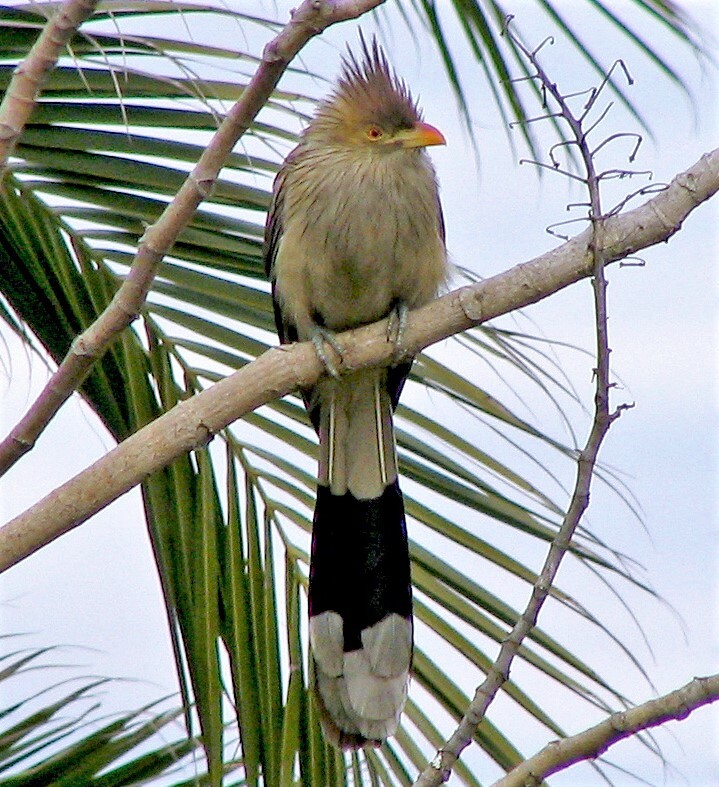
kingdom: Animalia
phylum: Chordata
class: Aves
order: Cuculiformes
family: Cuculidae
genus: Guira
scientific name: Guira guira
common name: Guira cuckoo
